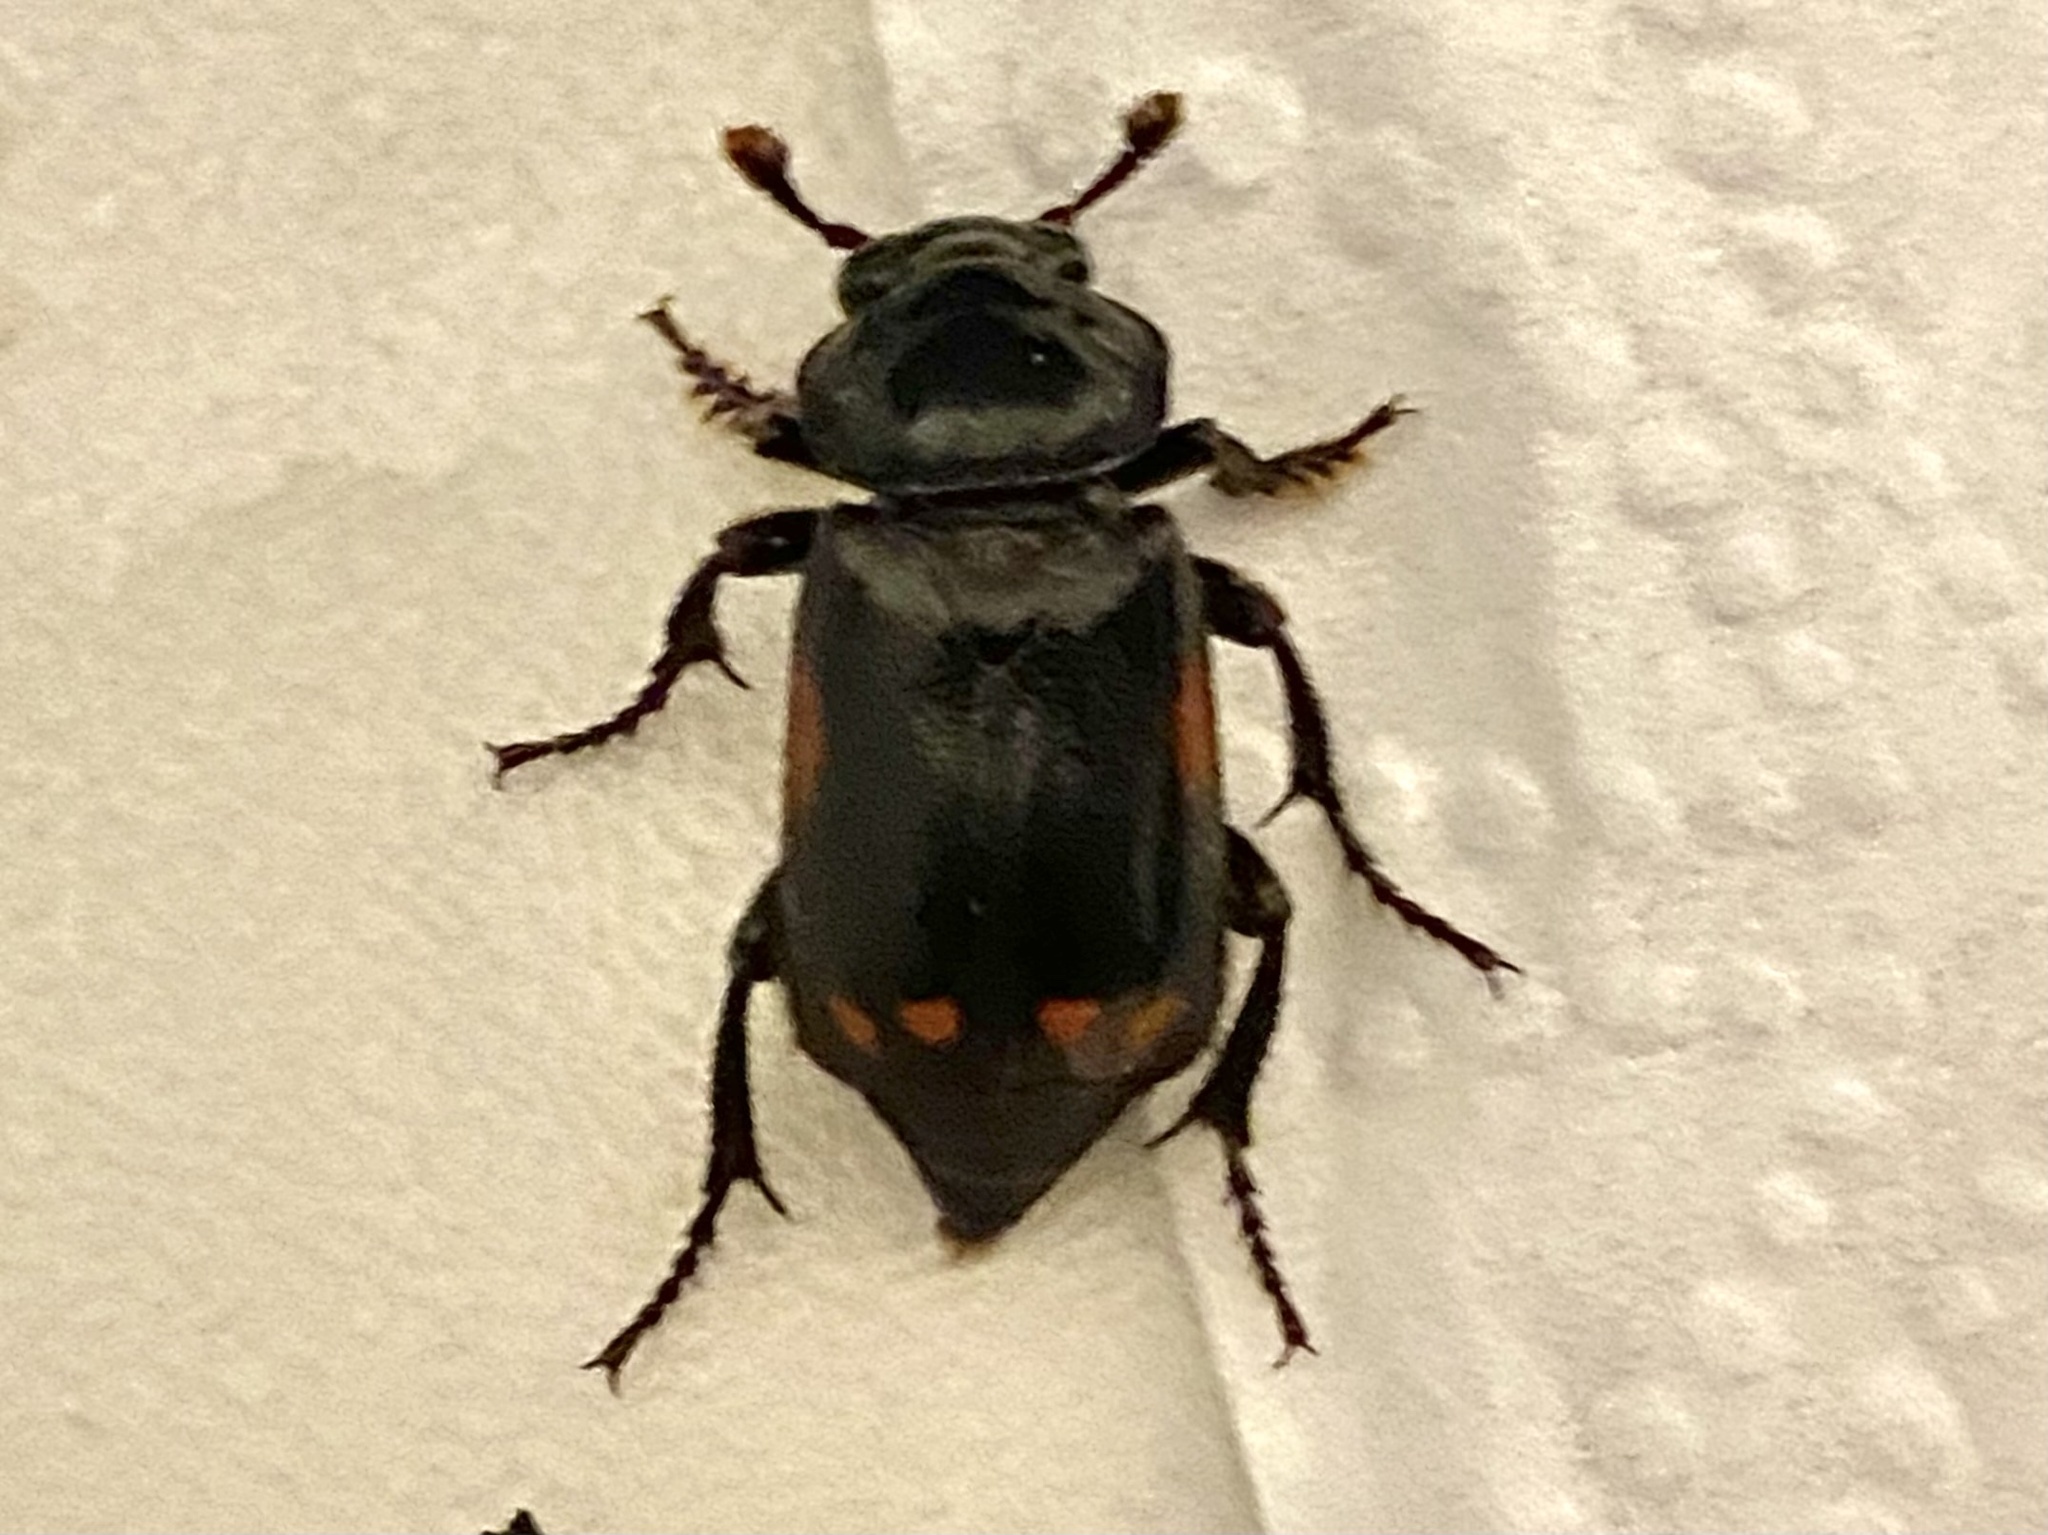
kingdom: Animalia
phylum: Arthropoda
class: Insecta
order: Coleoptera
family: Staphylinidae
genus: Nicrophorus
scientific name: Nicrophorus pustulatus
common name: Pustulated carrion beetle
